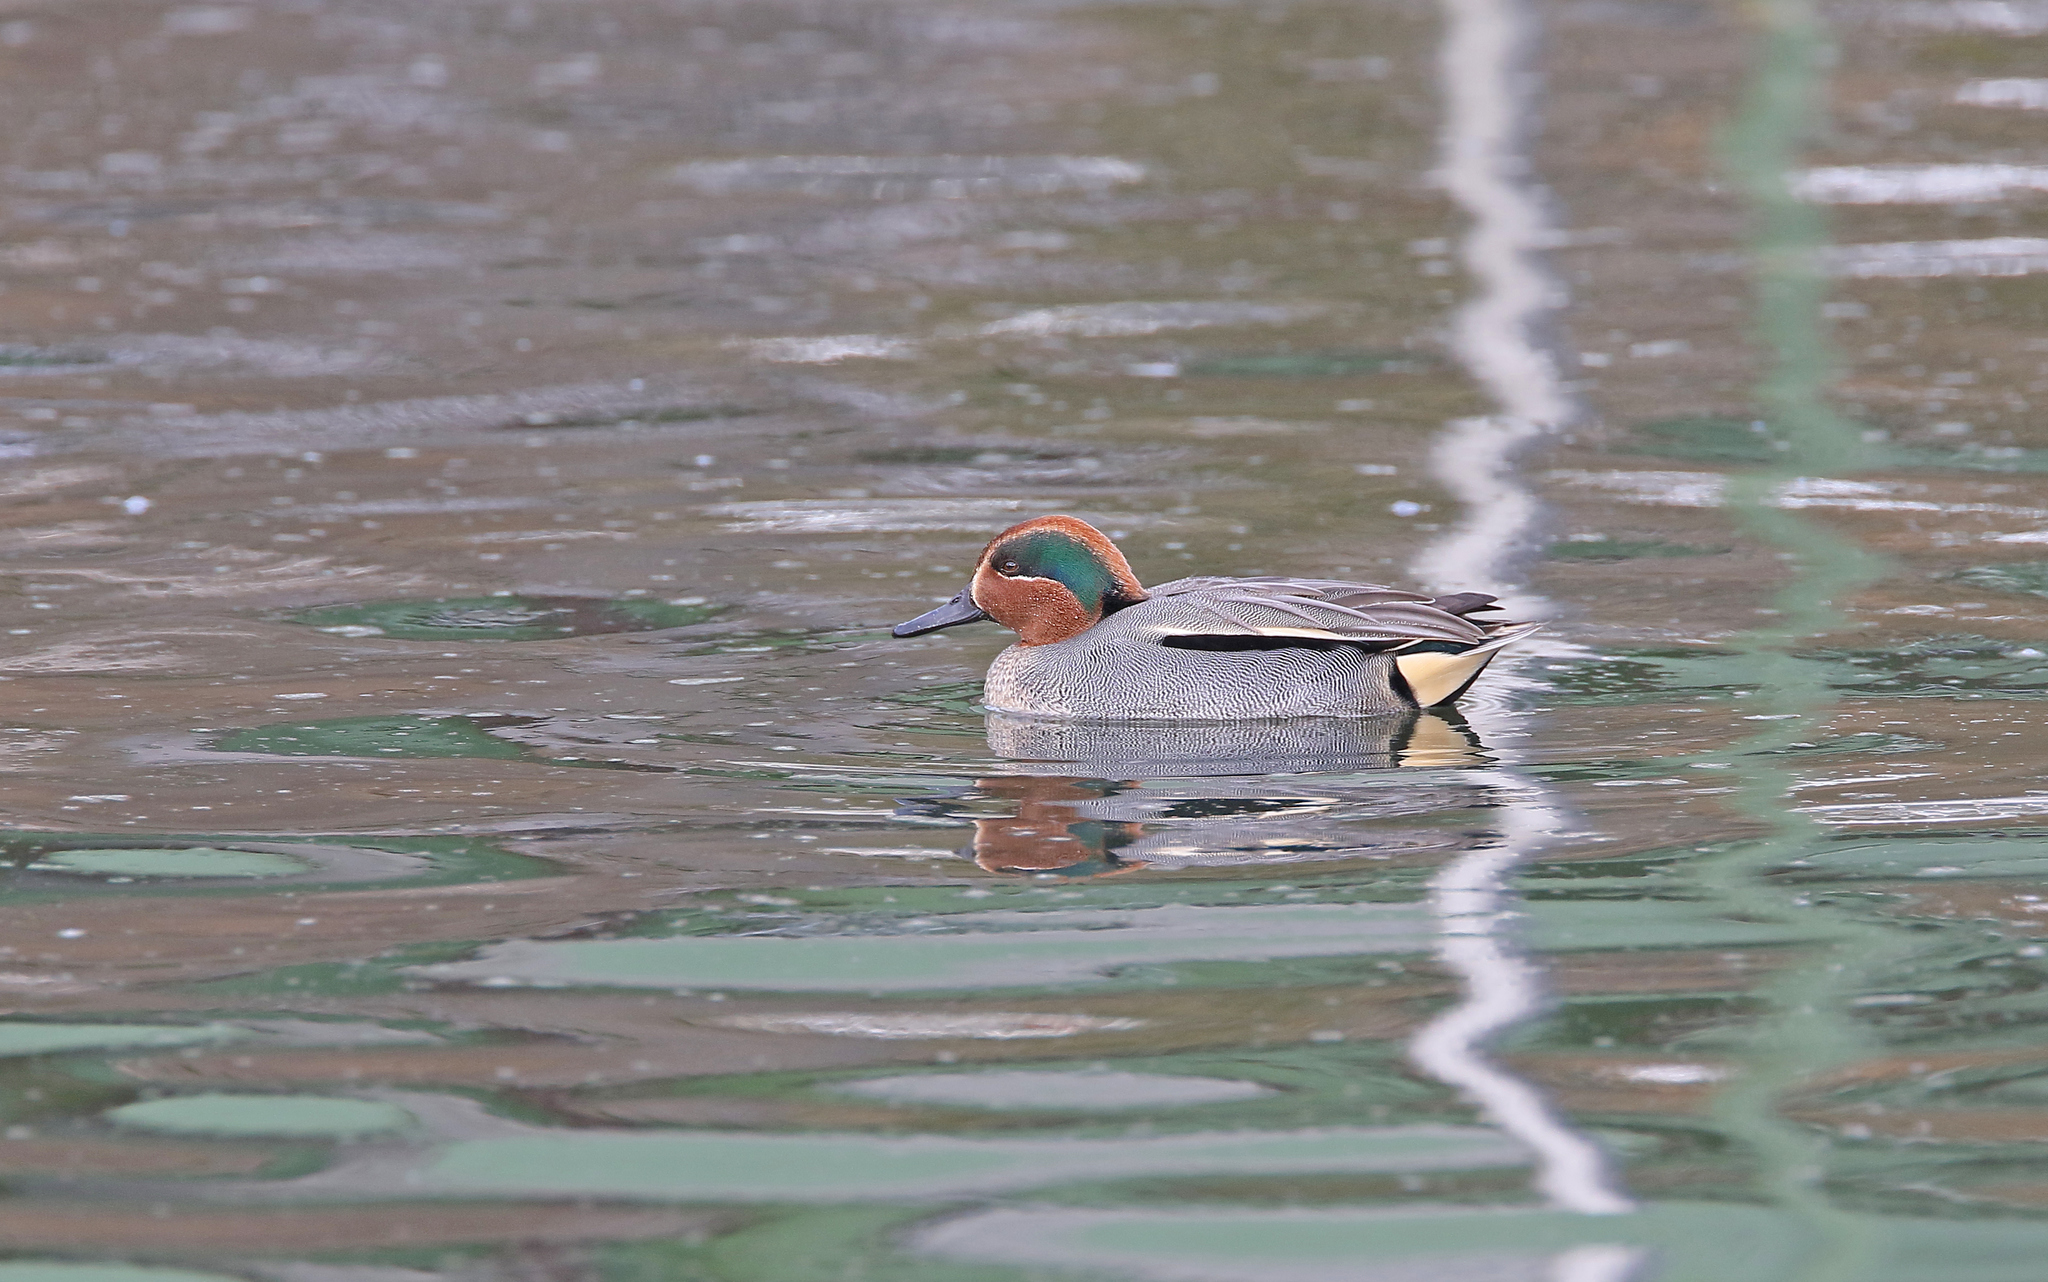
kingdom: Animalia
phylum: Chordata
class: Aves
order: Anseriformes
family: Anatidae
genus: Anas
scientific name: Anas crecca
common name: Eurasian teal
